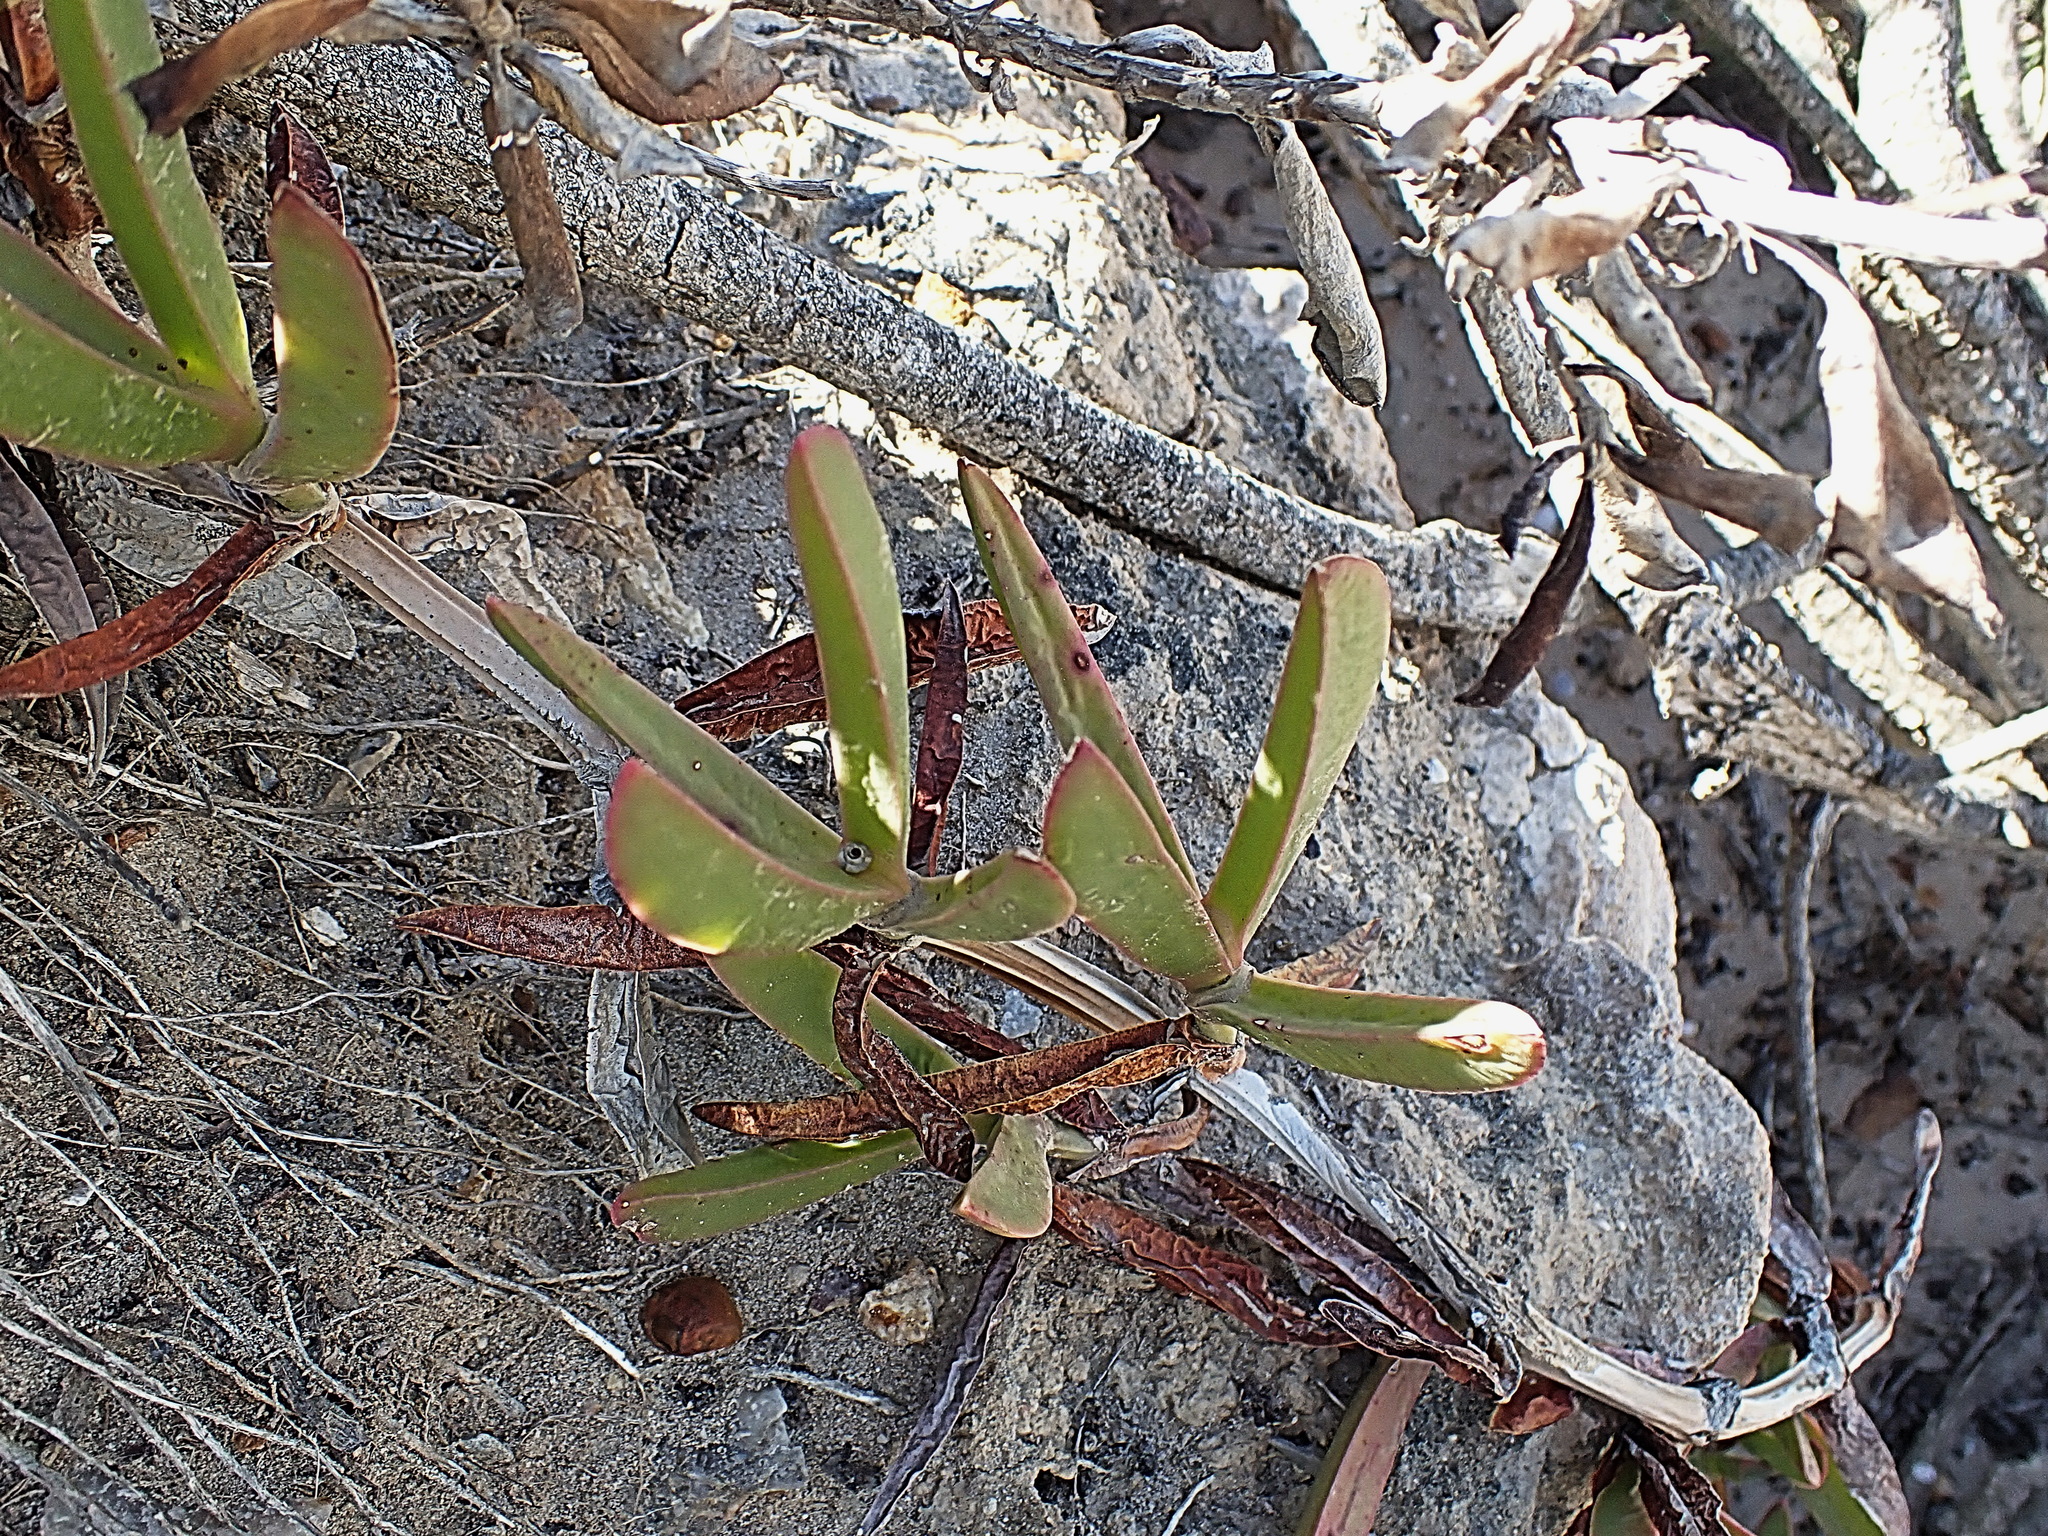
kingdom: Plantae
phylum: Tracheophyta
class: Magnoliopsida
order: Caryophyllales
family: Aizoaceae
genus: Carpobrotus
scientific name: Carpobrotus acinaciformis
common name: Sally-my-handsome
